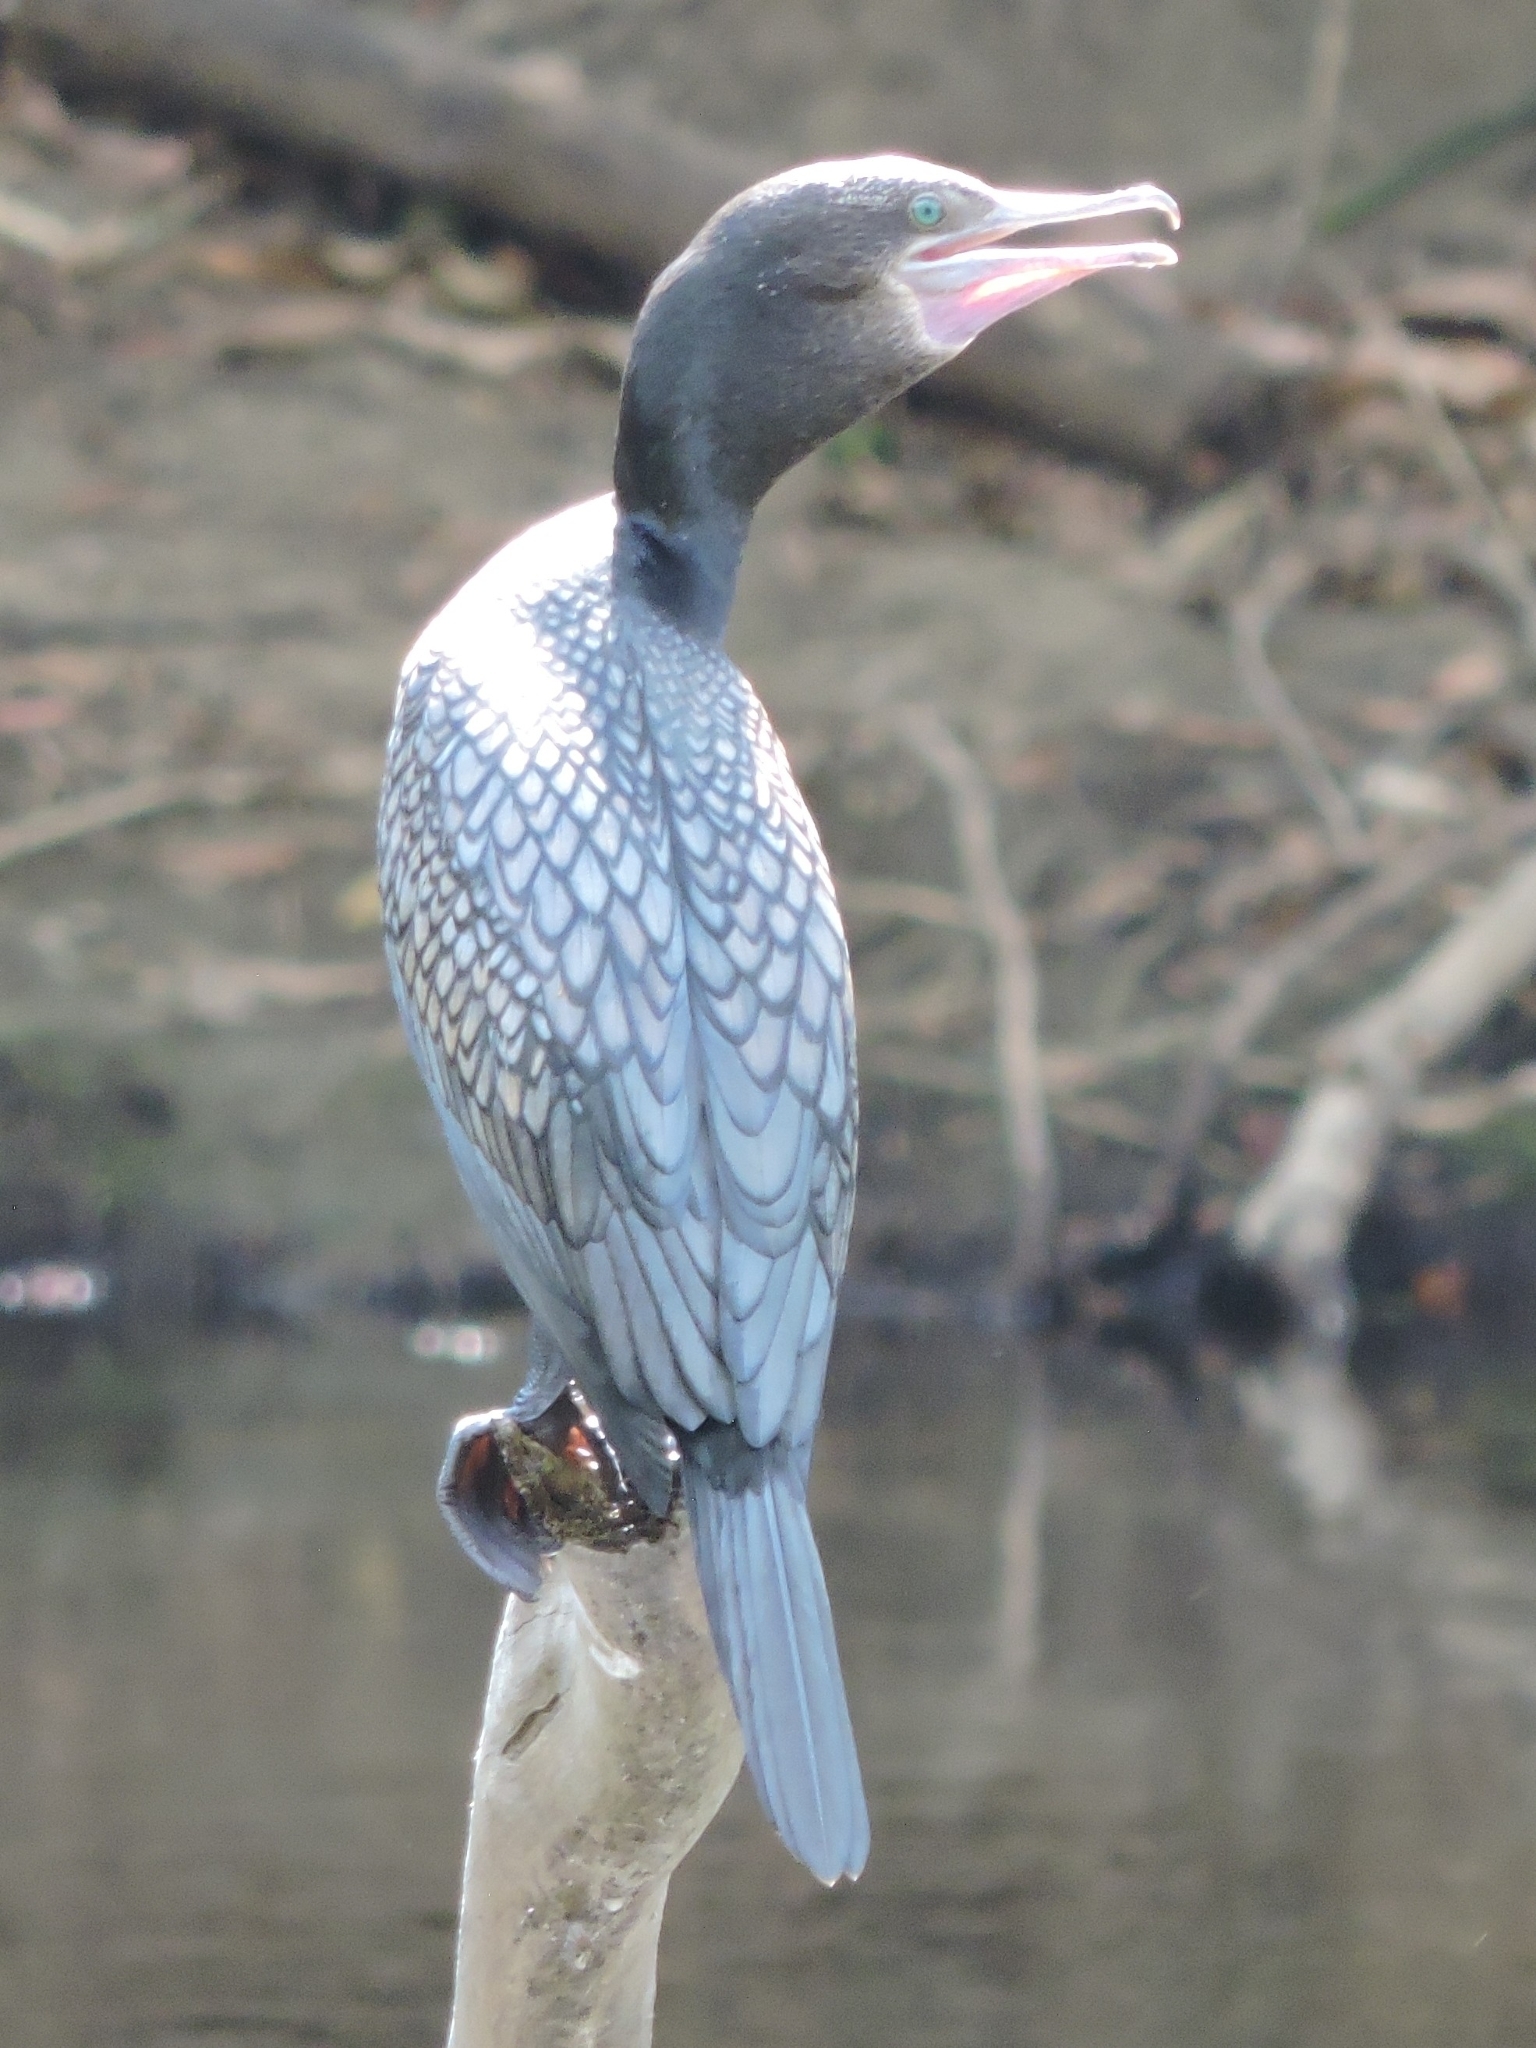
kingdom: Animalia
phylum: Chordata
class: Aves
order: Suliformes
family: Phalacrocoracidae
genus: Phalacrocorax
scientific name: Phalacrocorax sulcirostris
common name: Little black cormorant
